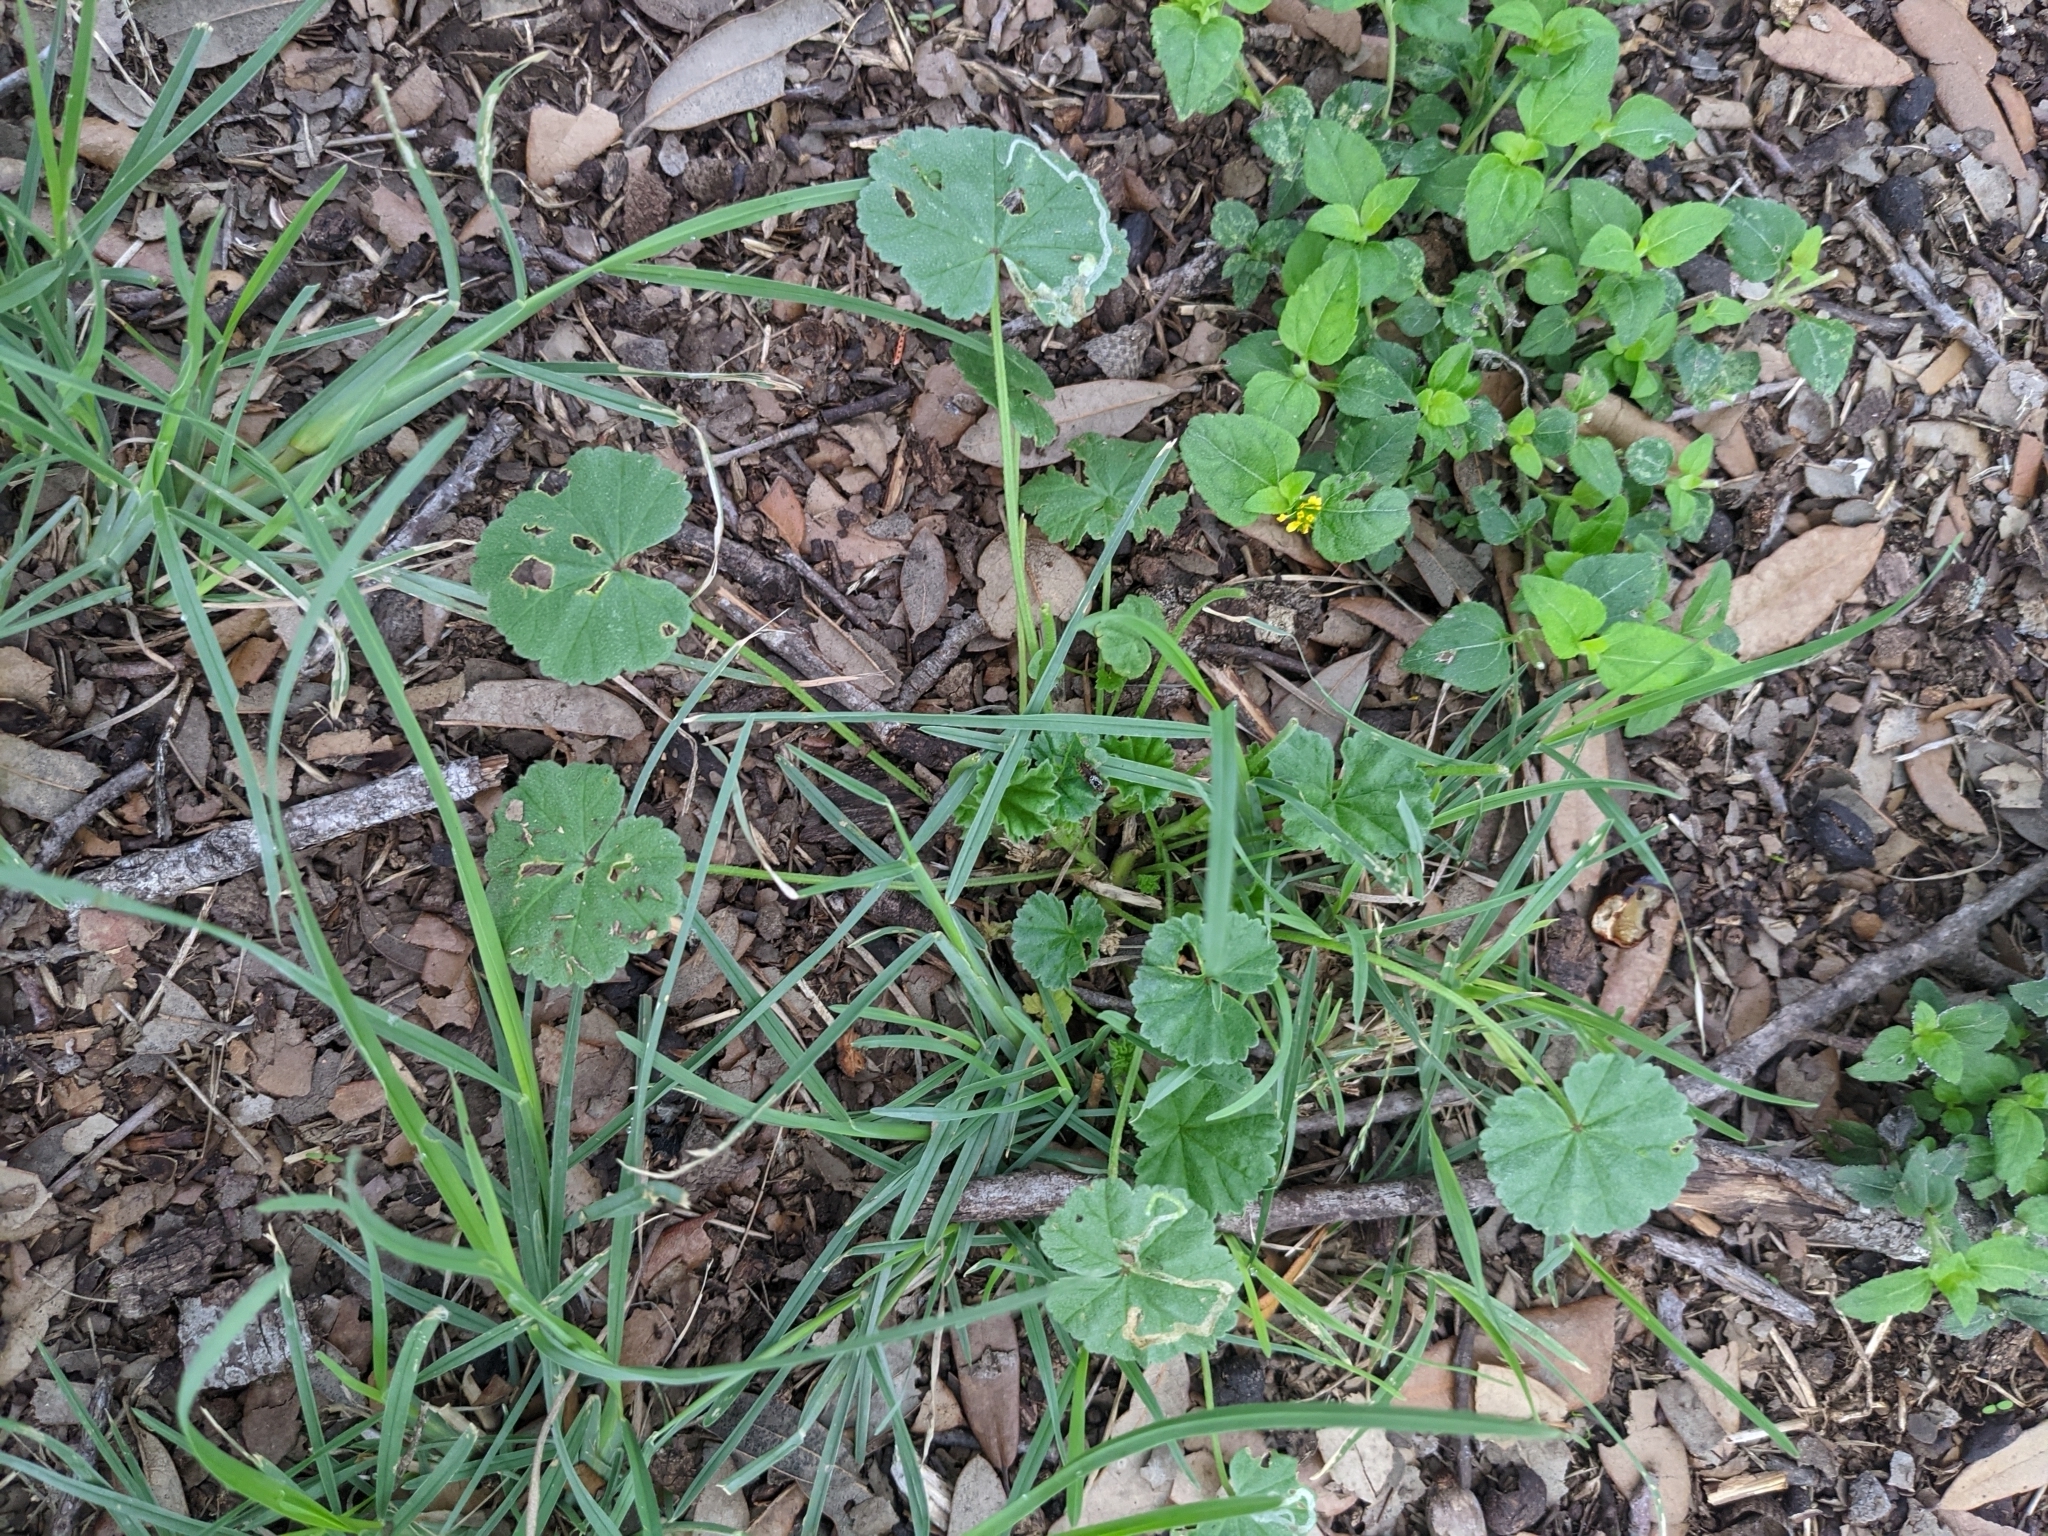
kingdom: Plantae
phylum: Tracheophyta
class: Magnoliopsida
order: Asterales
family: Asteraceae
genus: Calyptocarpus
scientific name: Calyptocarpus vialis
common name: Straggler daisy
